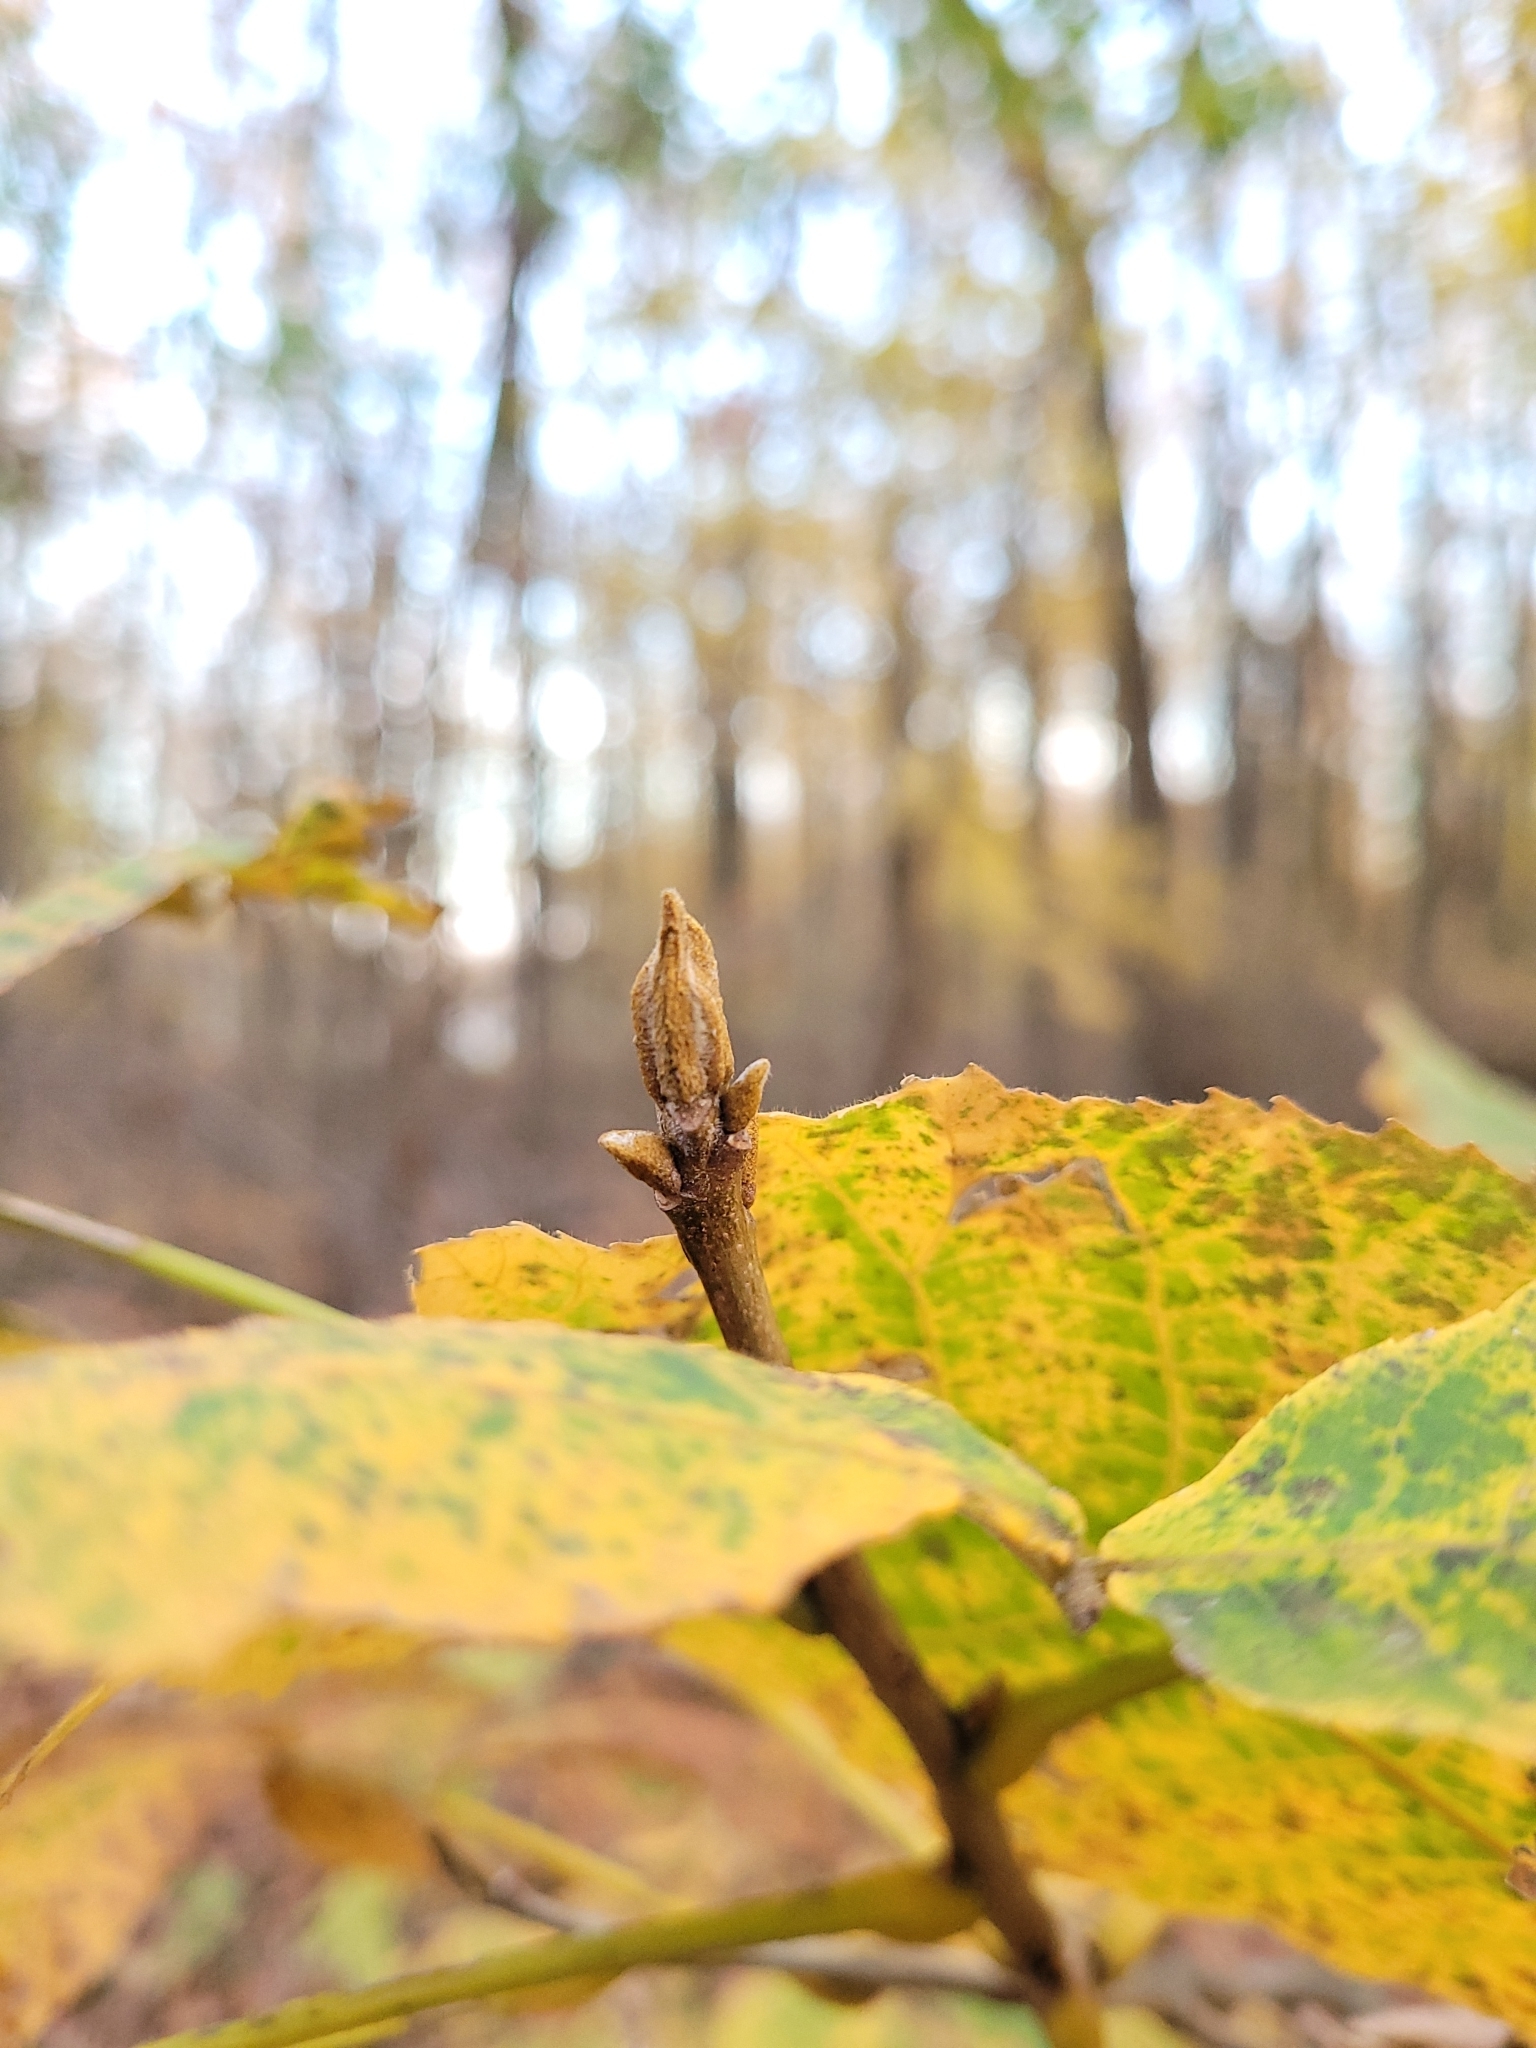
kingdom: Plantae
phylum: Tracheophyta
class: Magnoliopsida
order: Fagales
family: Juglandaceae
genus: Carya
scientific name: Carya cordiformis
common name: Bitternut hickory
